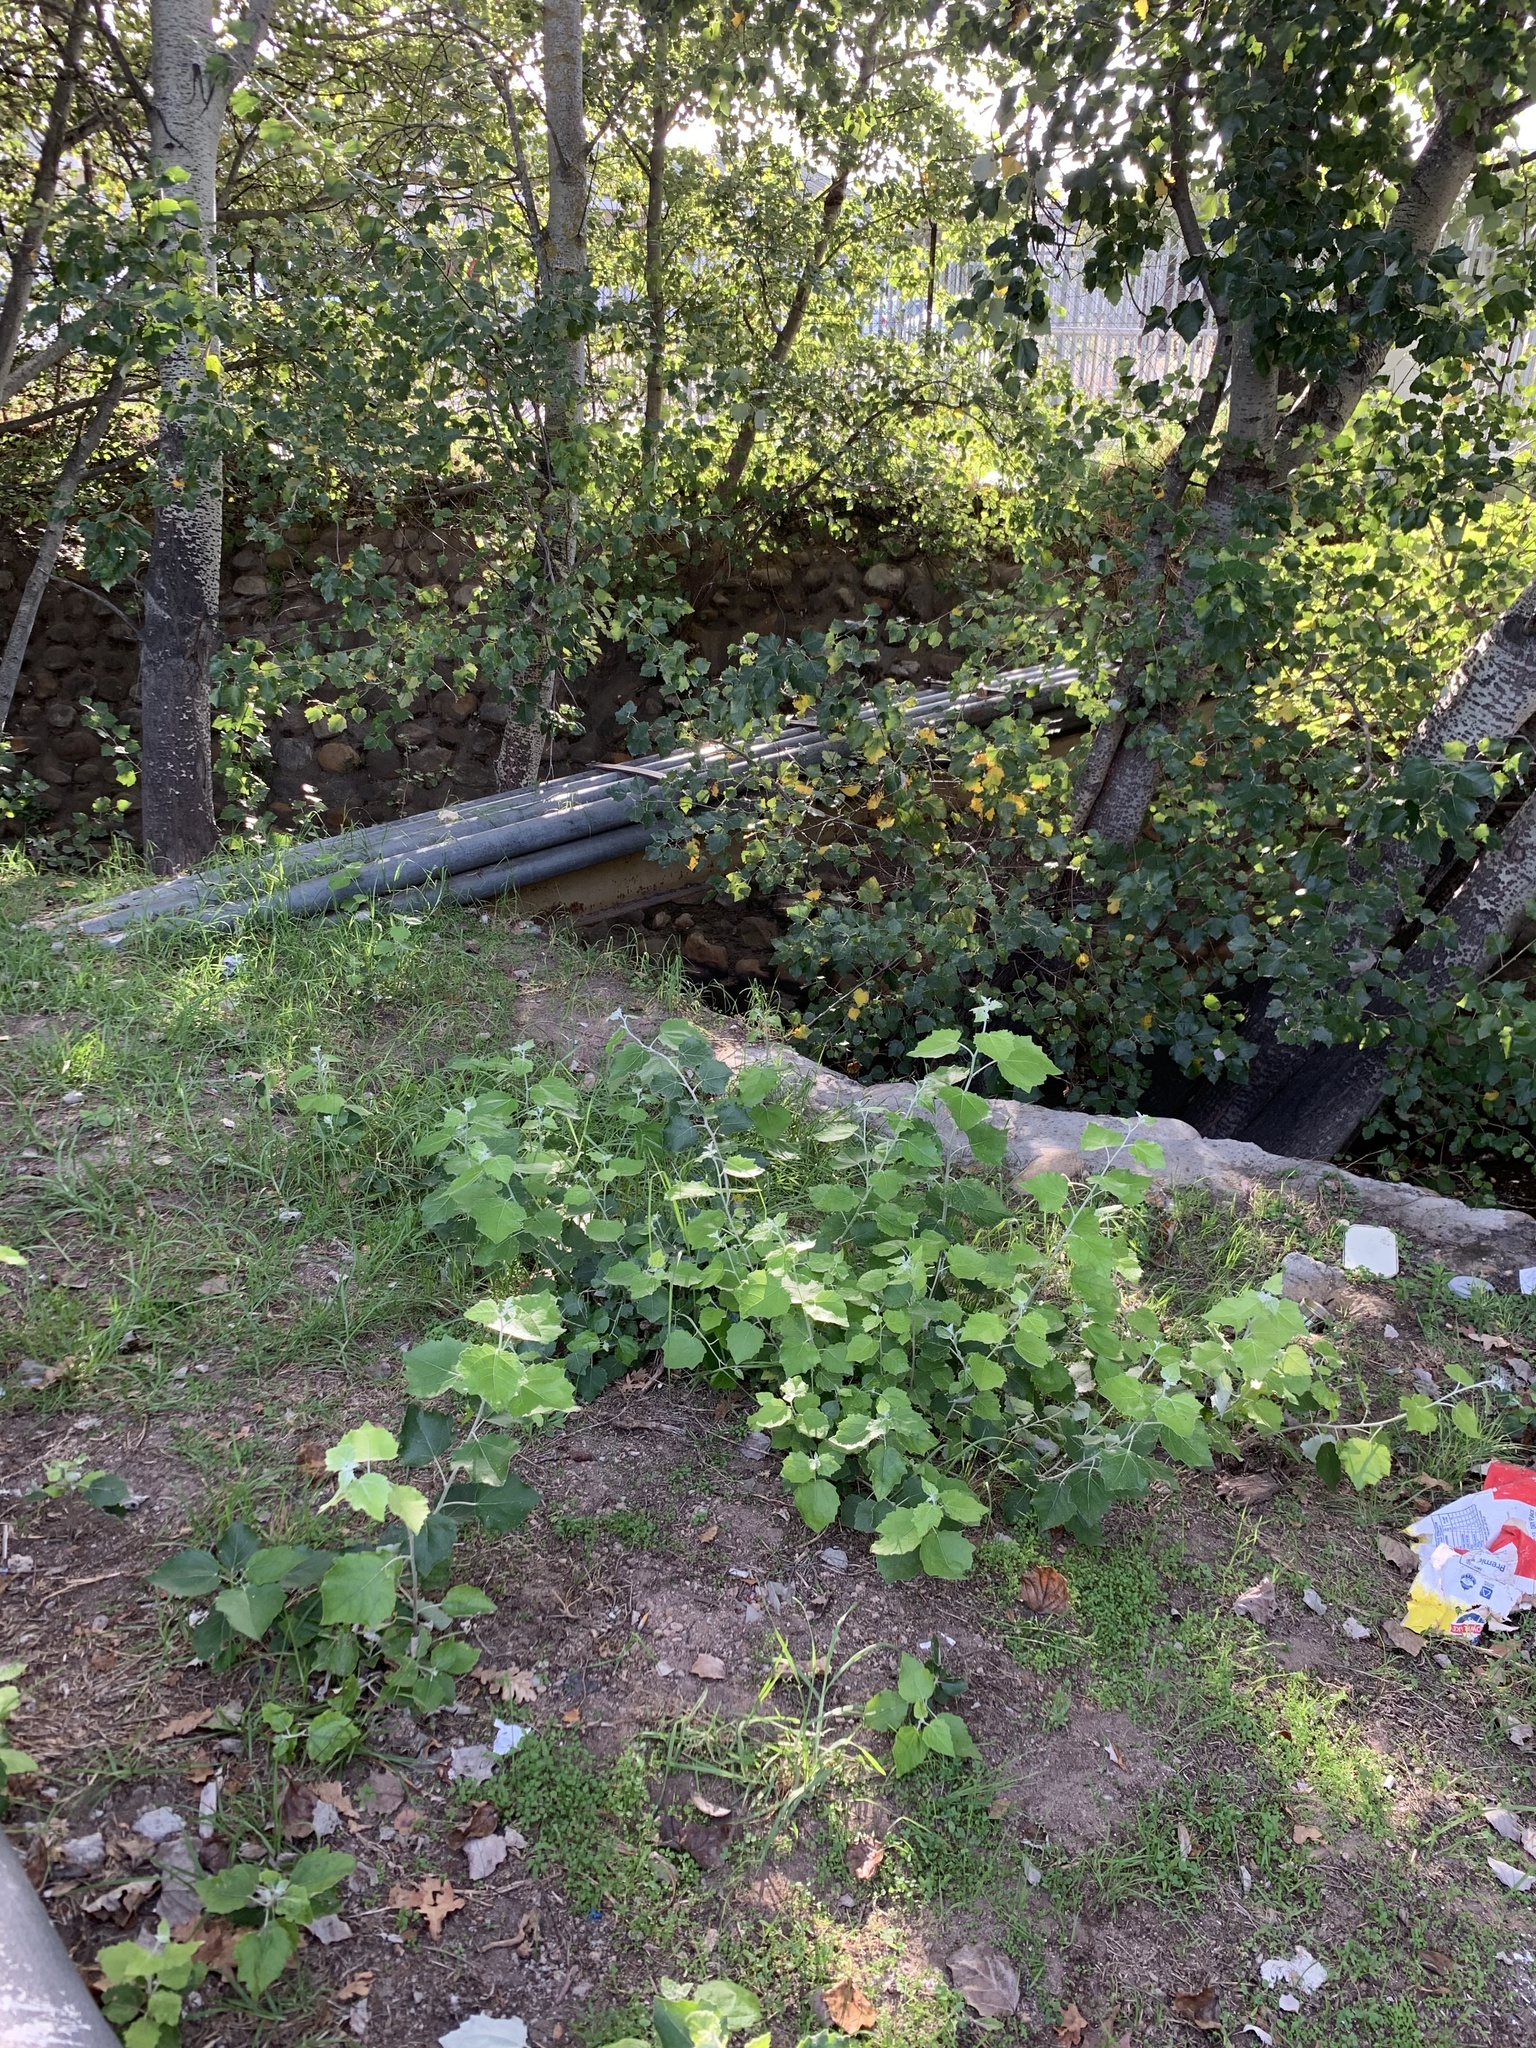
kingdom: Plantae
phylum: Tracheophyta
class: Magnoliopsida
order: Malpighiales
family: Salicaceae
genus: Populus
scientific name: Populus canescens
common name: Gray poplar
